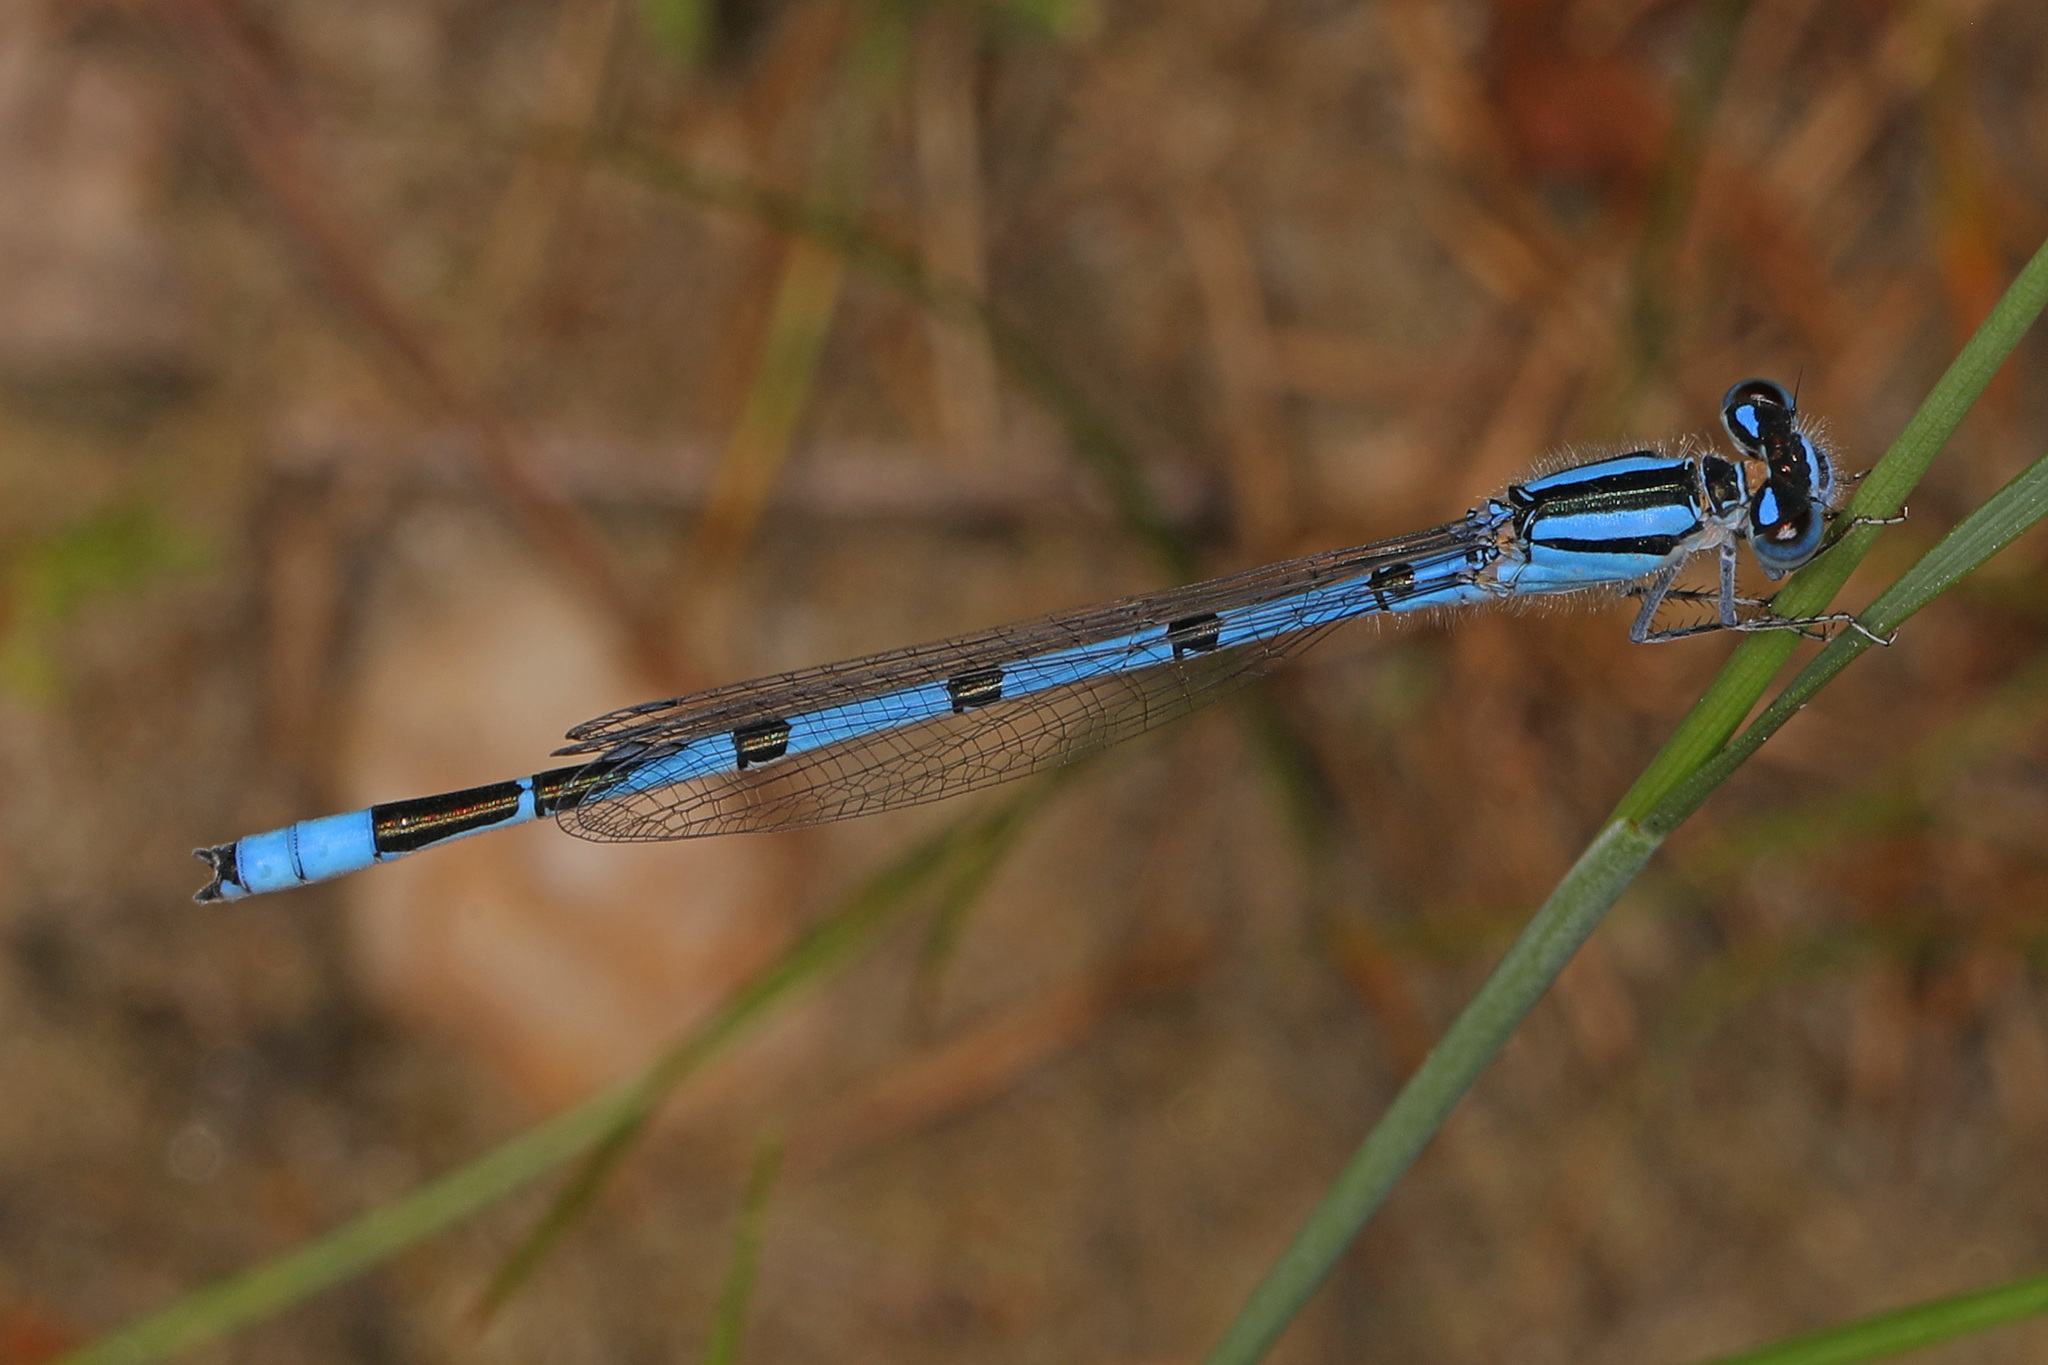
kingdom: Animalia
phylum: Arthropoda
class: Insecta
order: Odonata
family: Coenagrionidae
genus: Enallagma
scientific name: Enallagma civile
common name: Damselfly
